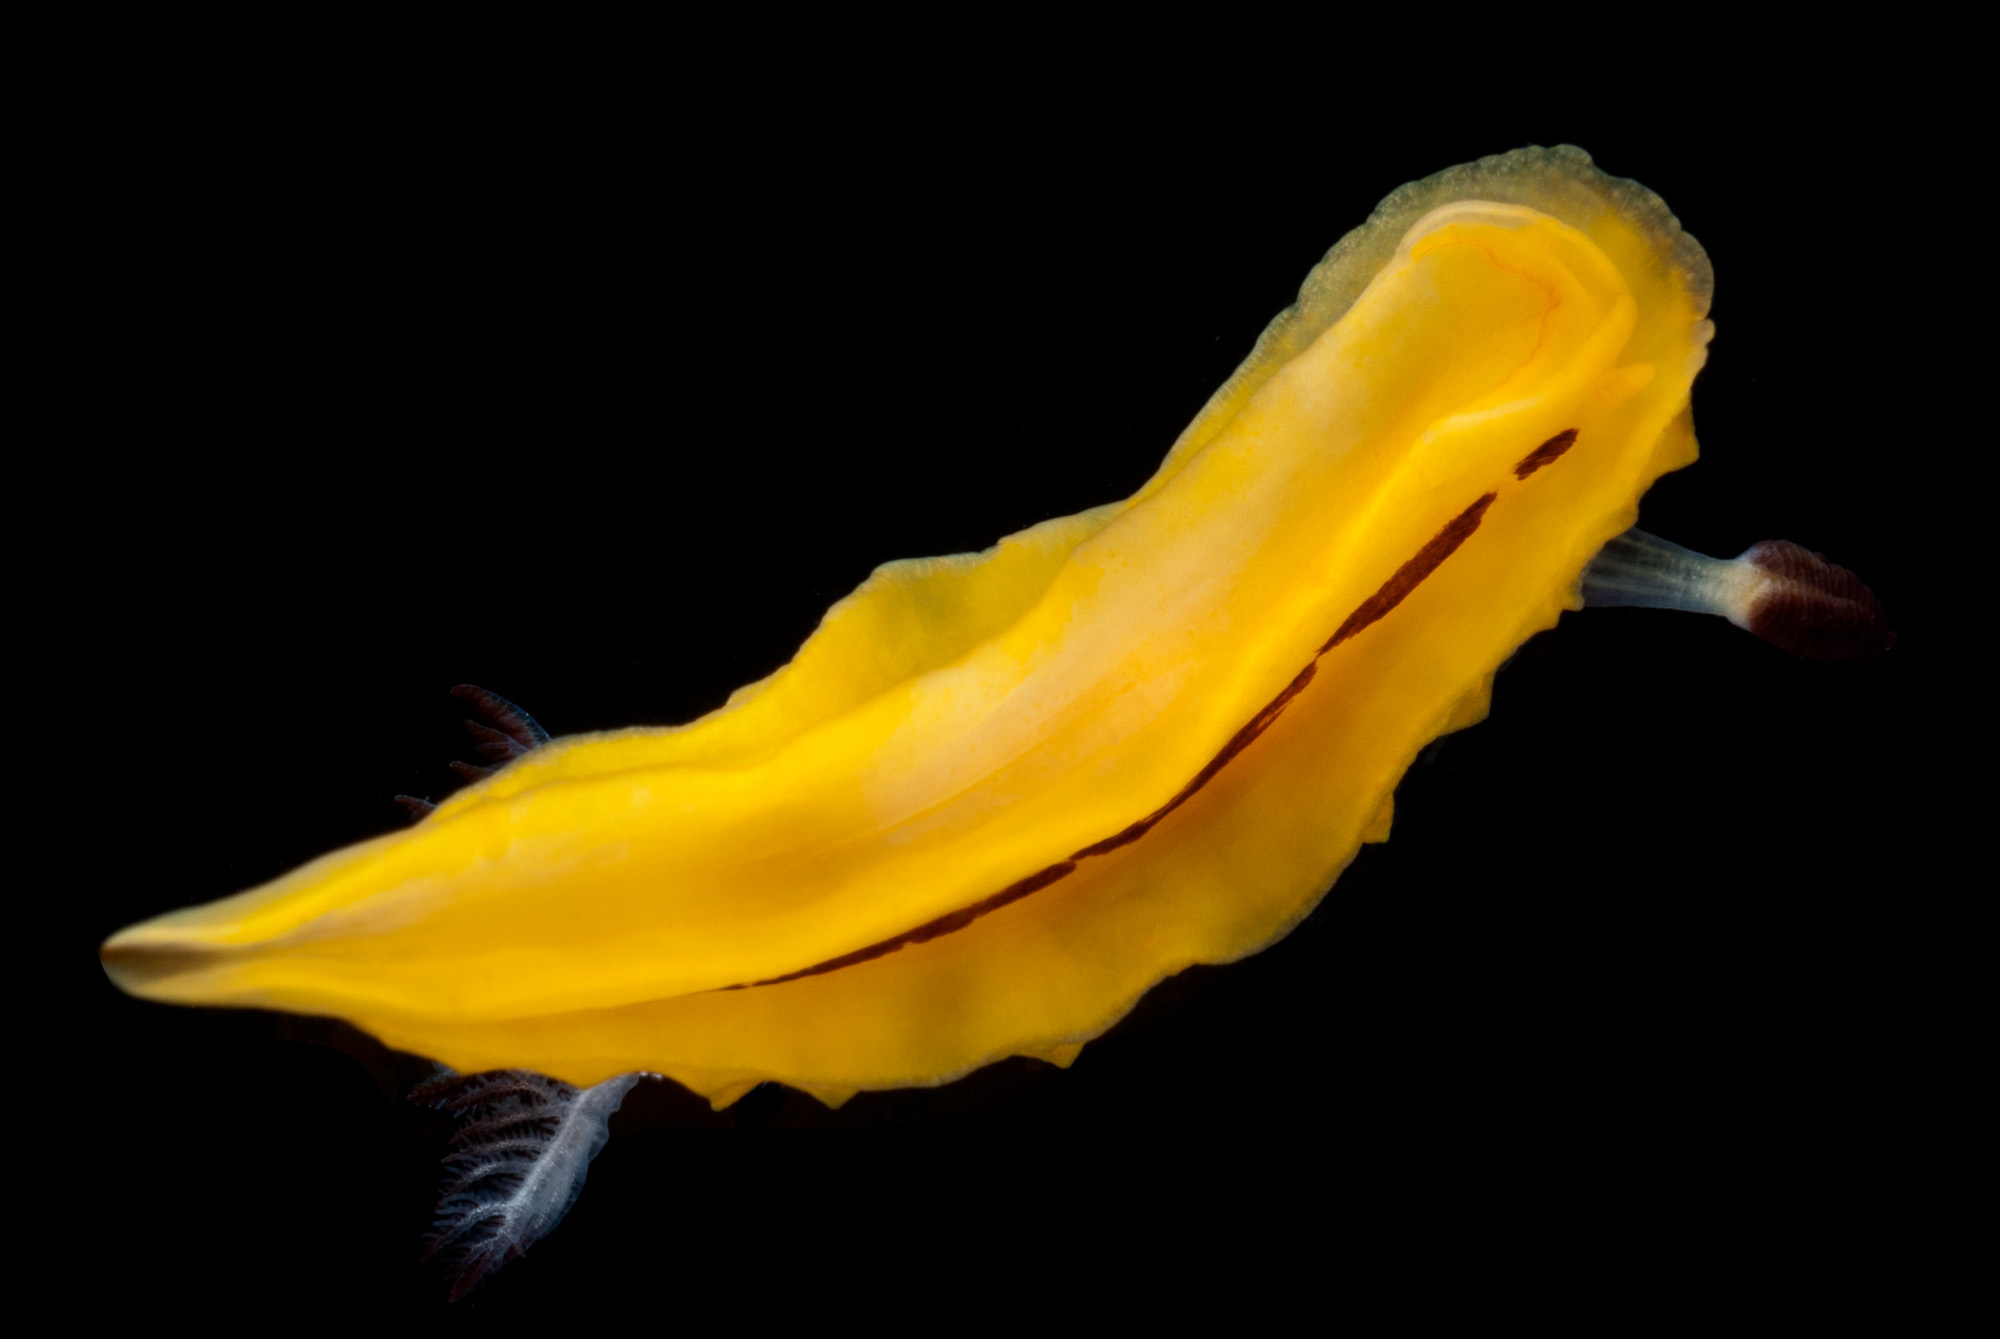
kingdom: Animalia
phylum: Mollusca
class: Gastropoda
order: Nudibranchia
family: Discodorididae
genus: Halgerda
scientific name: Halgerda indotessellata
